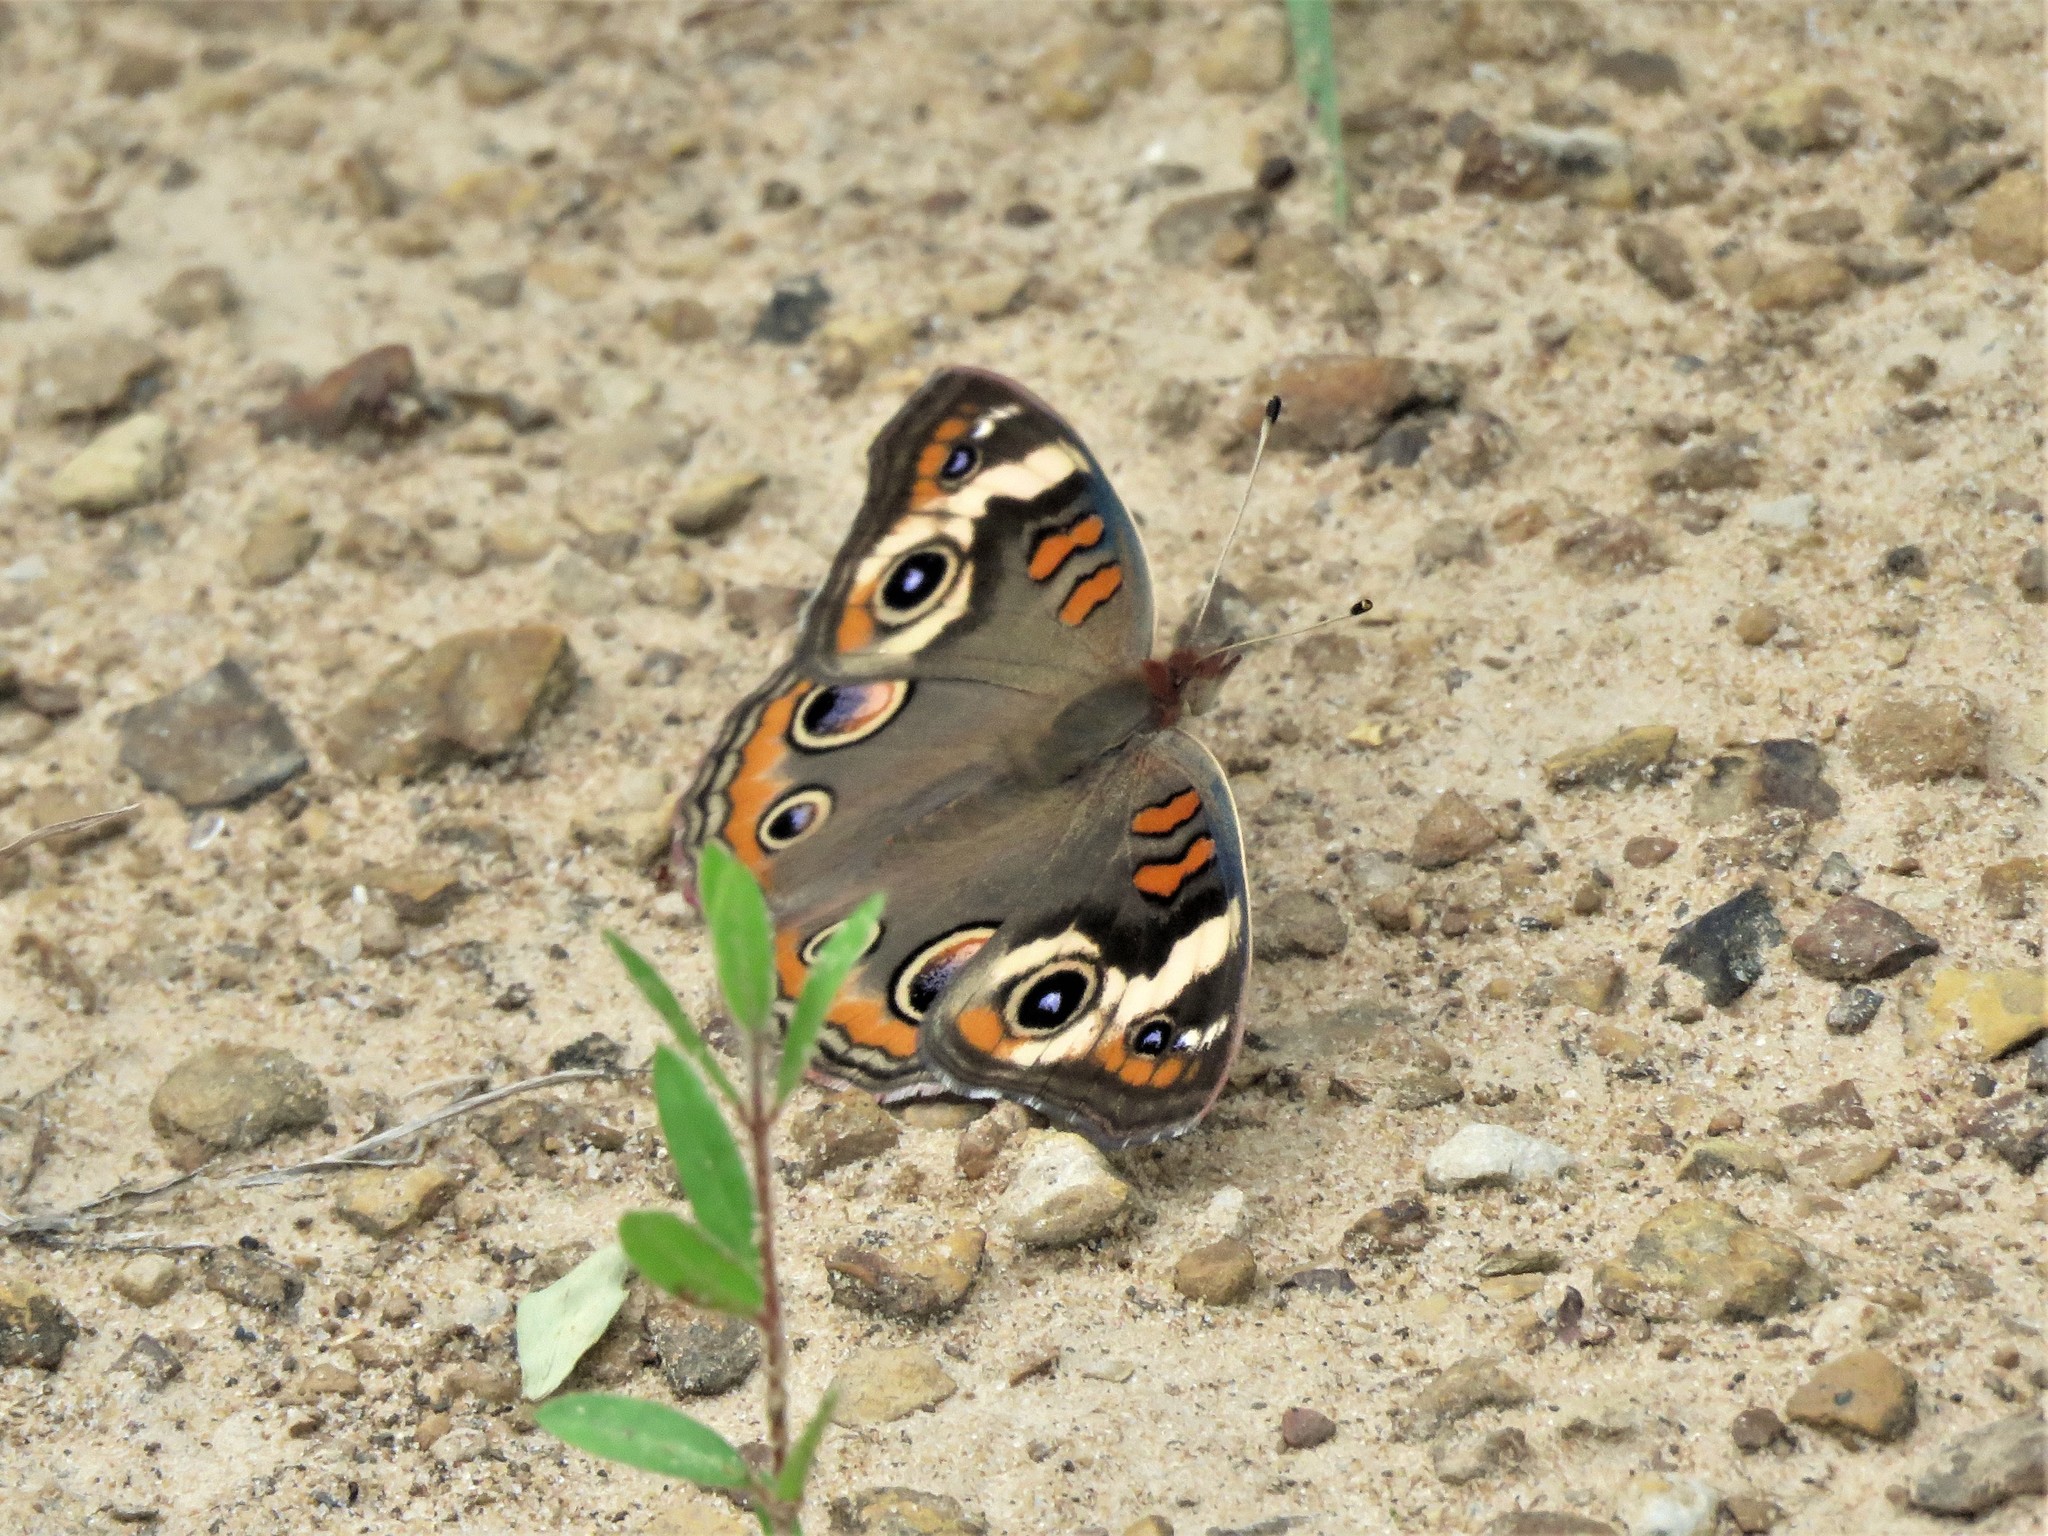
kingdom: Animalia
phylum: Arthropoda
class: Insecta
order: Lepidoptera
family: Nymphalidae
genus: Junonia
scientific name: Junonia coenia
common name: Common buckeye
